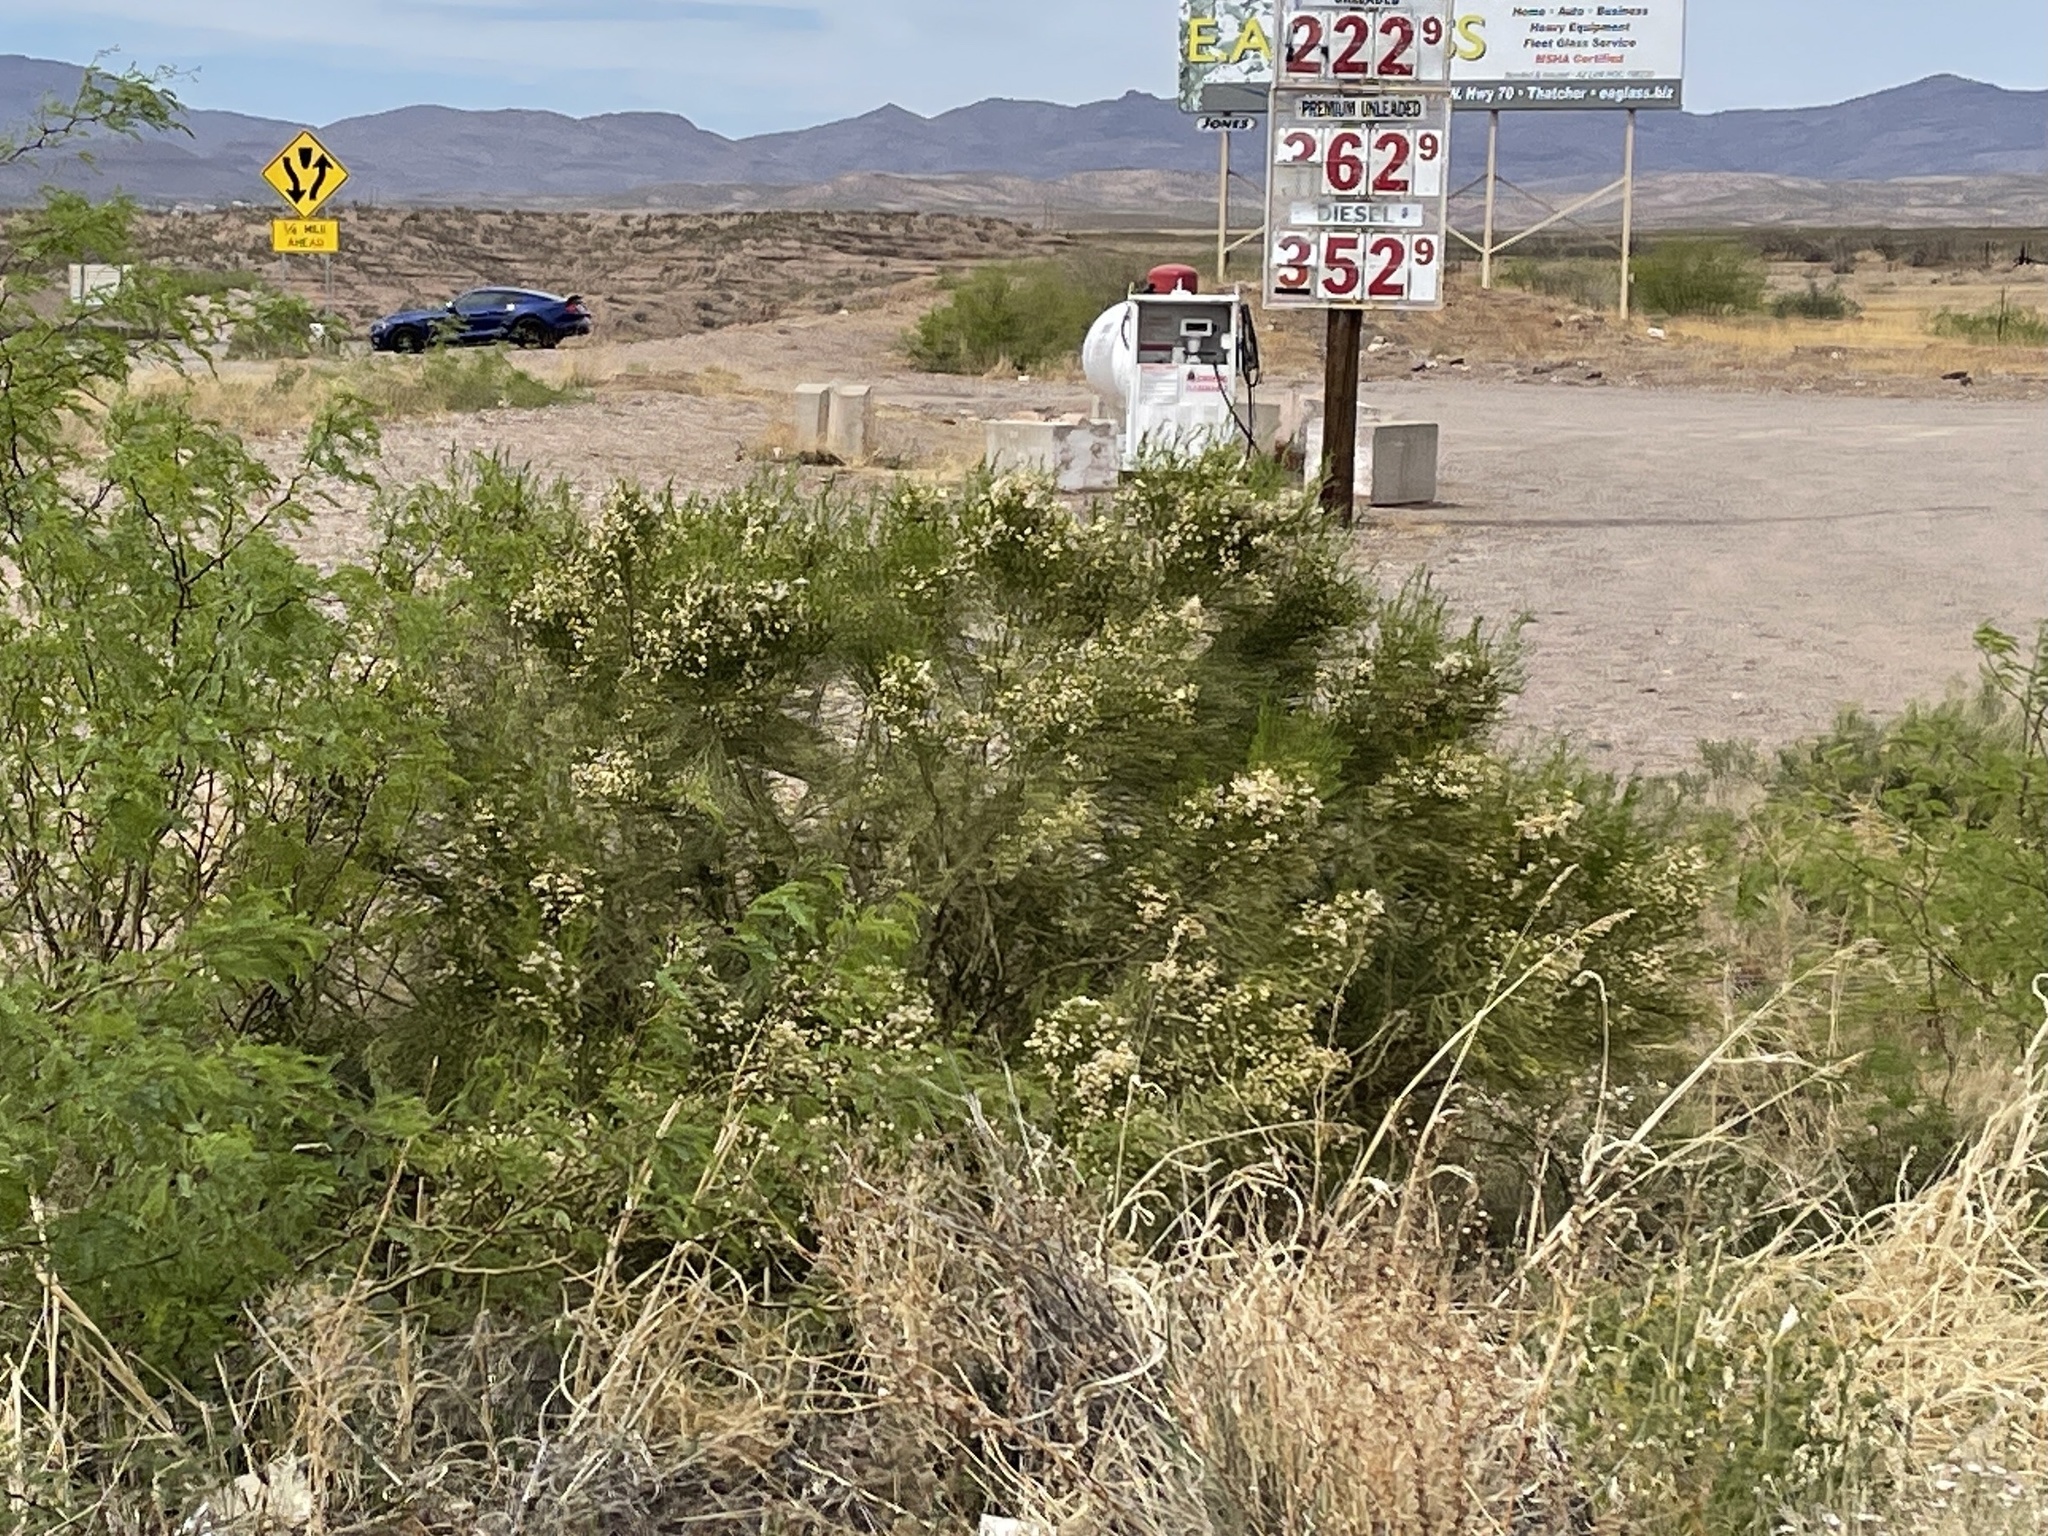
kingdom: Plantae
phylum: Tracheophyta
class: Magnoliopsida
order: Asterales
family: Asteraceae
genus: Baccharis
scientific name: Baccharis sarothroides
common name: Desert-broom
